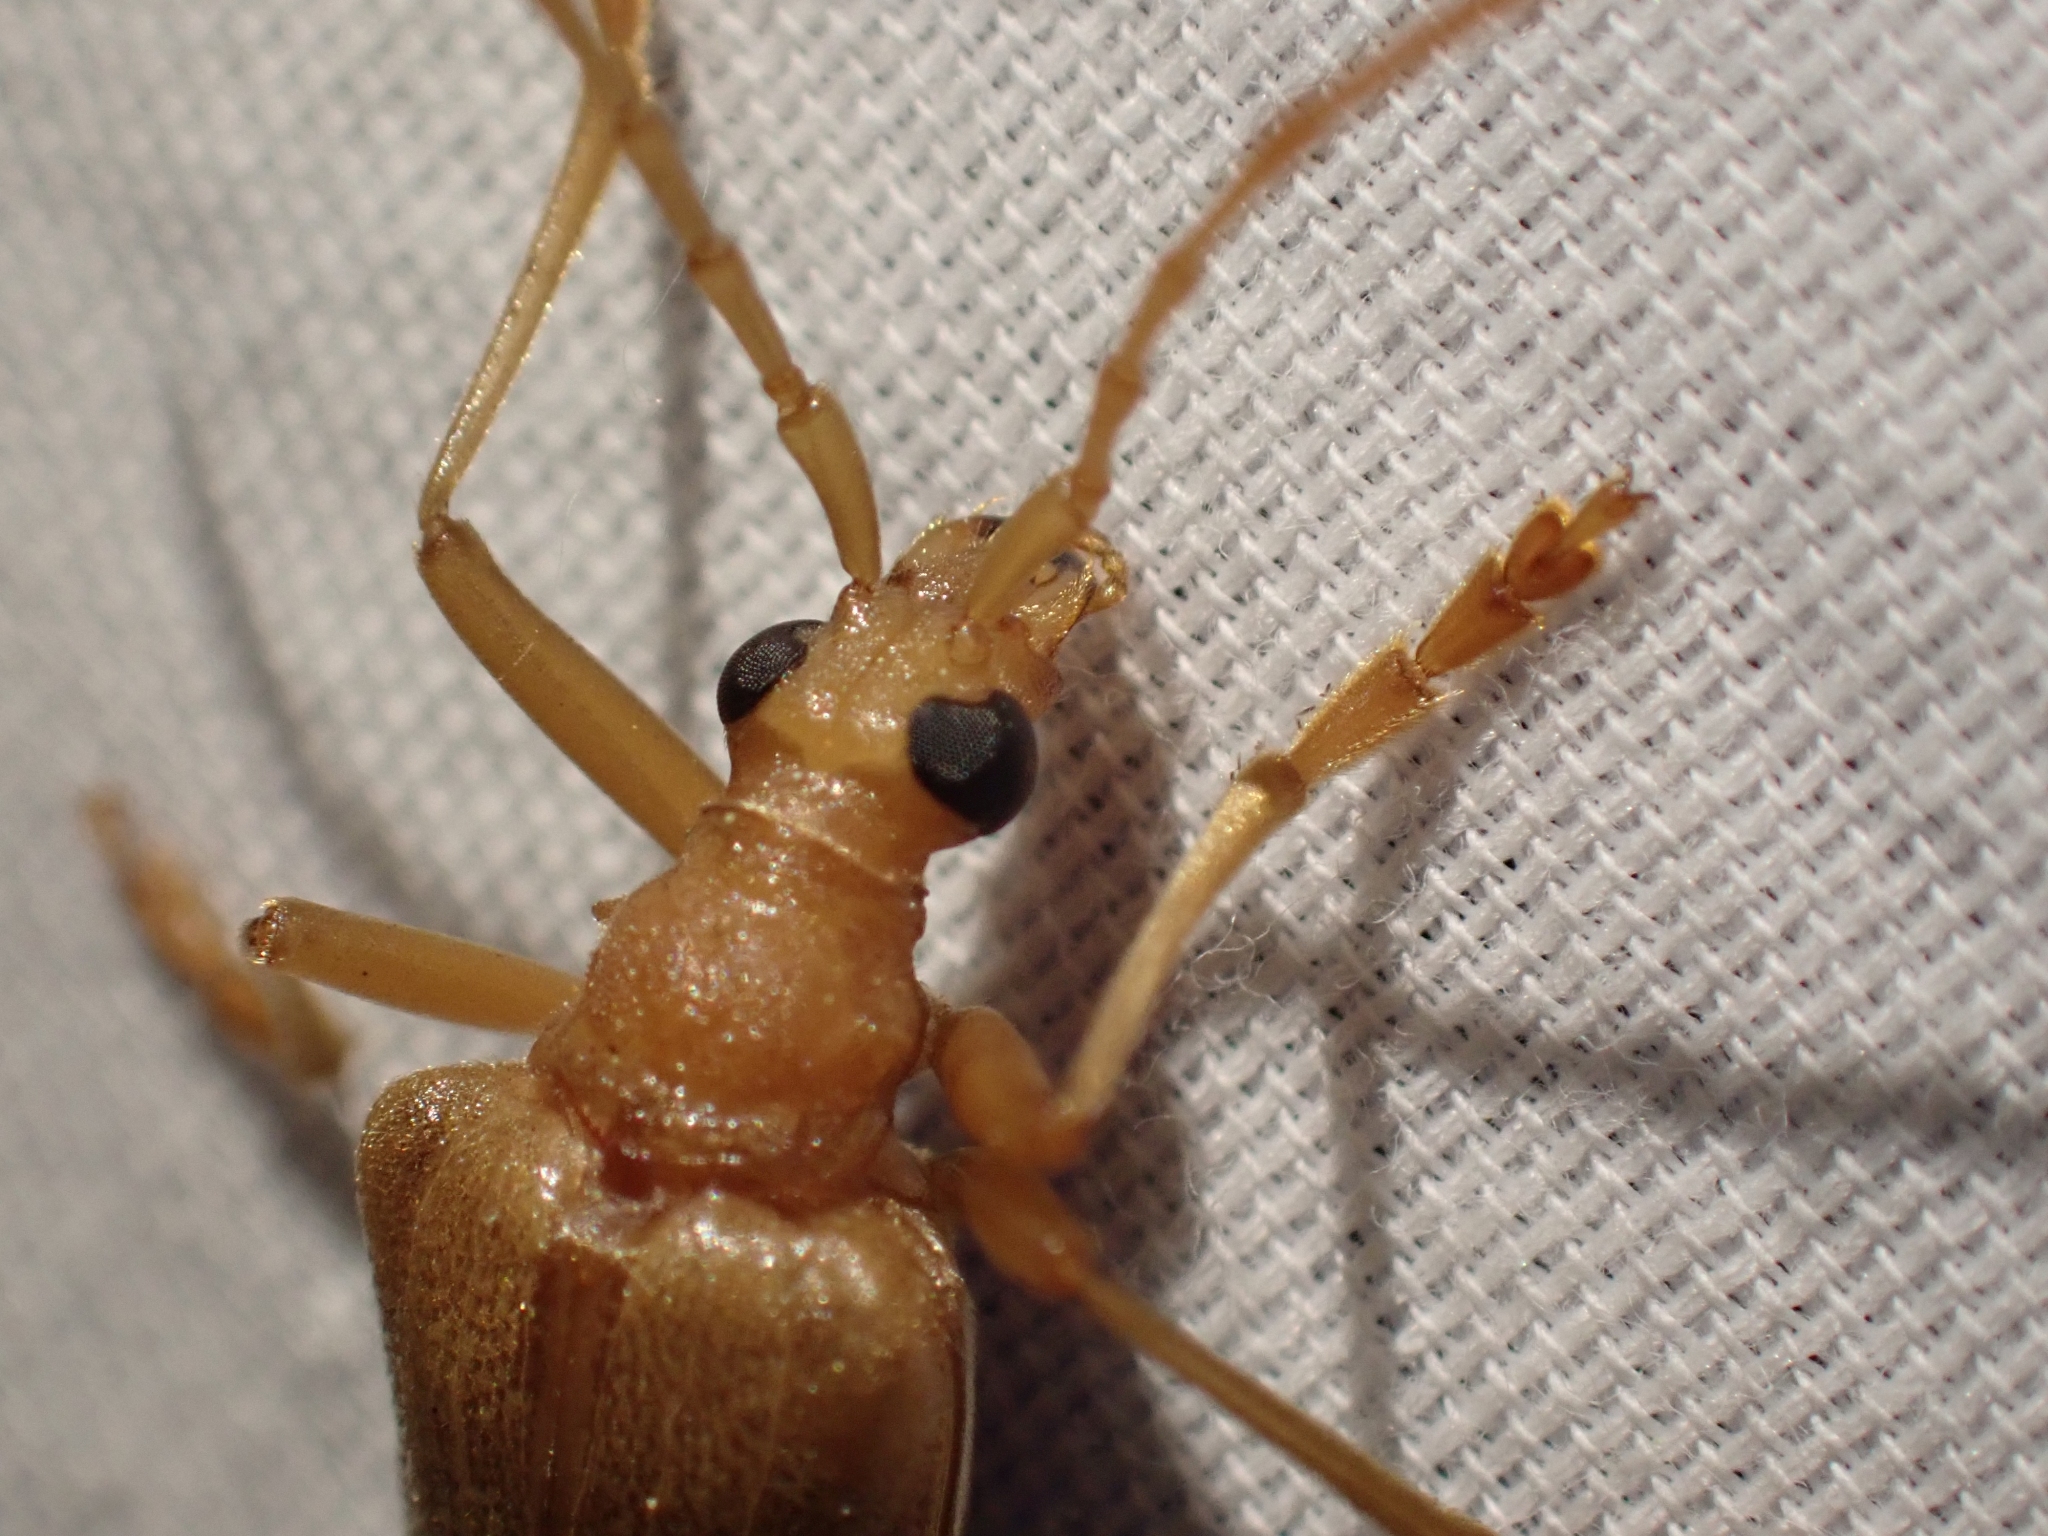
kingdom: Animalia
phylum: Arthropoda
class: Insecta
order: Coleoptera
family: Cerambycidae
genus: Centrodera
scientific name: Centrodera spurca
